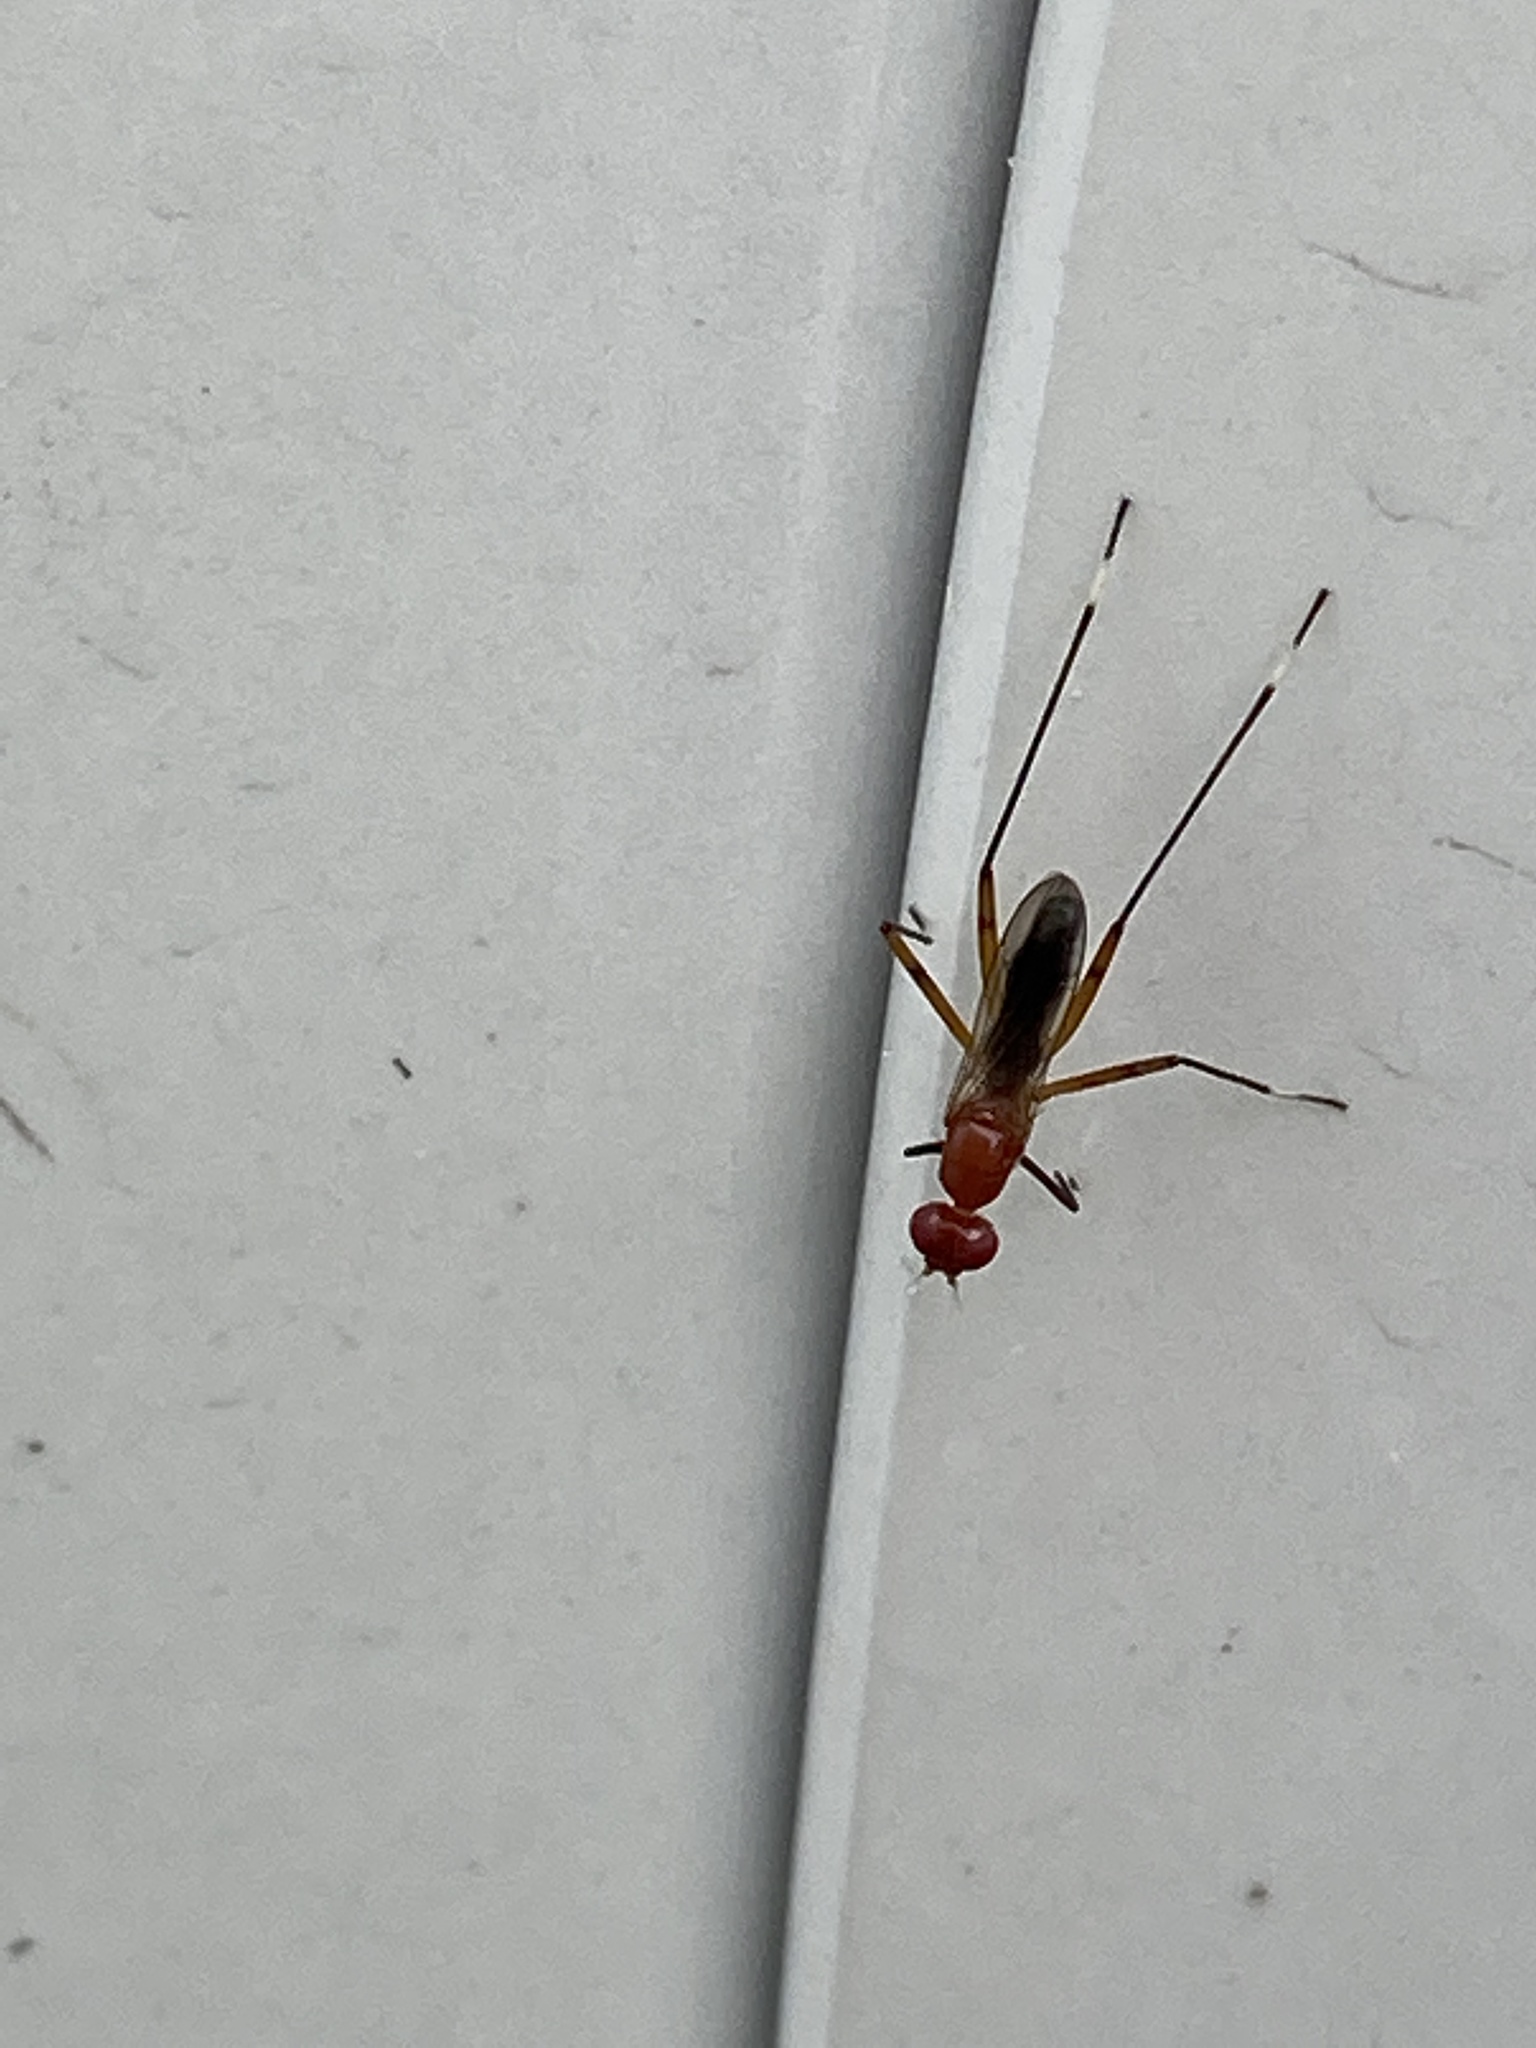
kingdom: Animalia
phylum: Arthropoda
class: Insecta
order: Diptera
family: Micropezidae
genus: Grallipeza
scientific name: Grallipeza nebulosa
